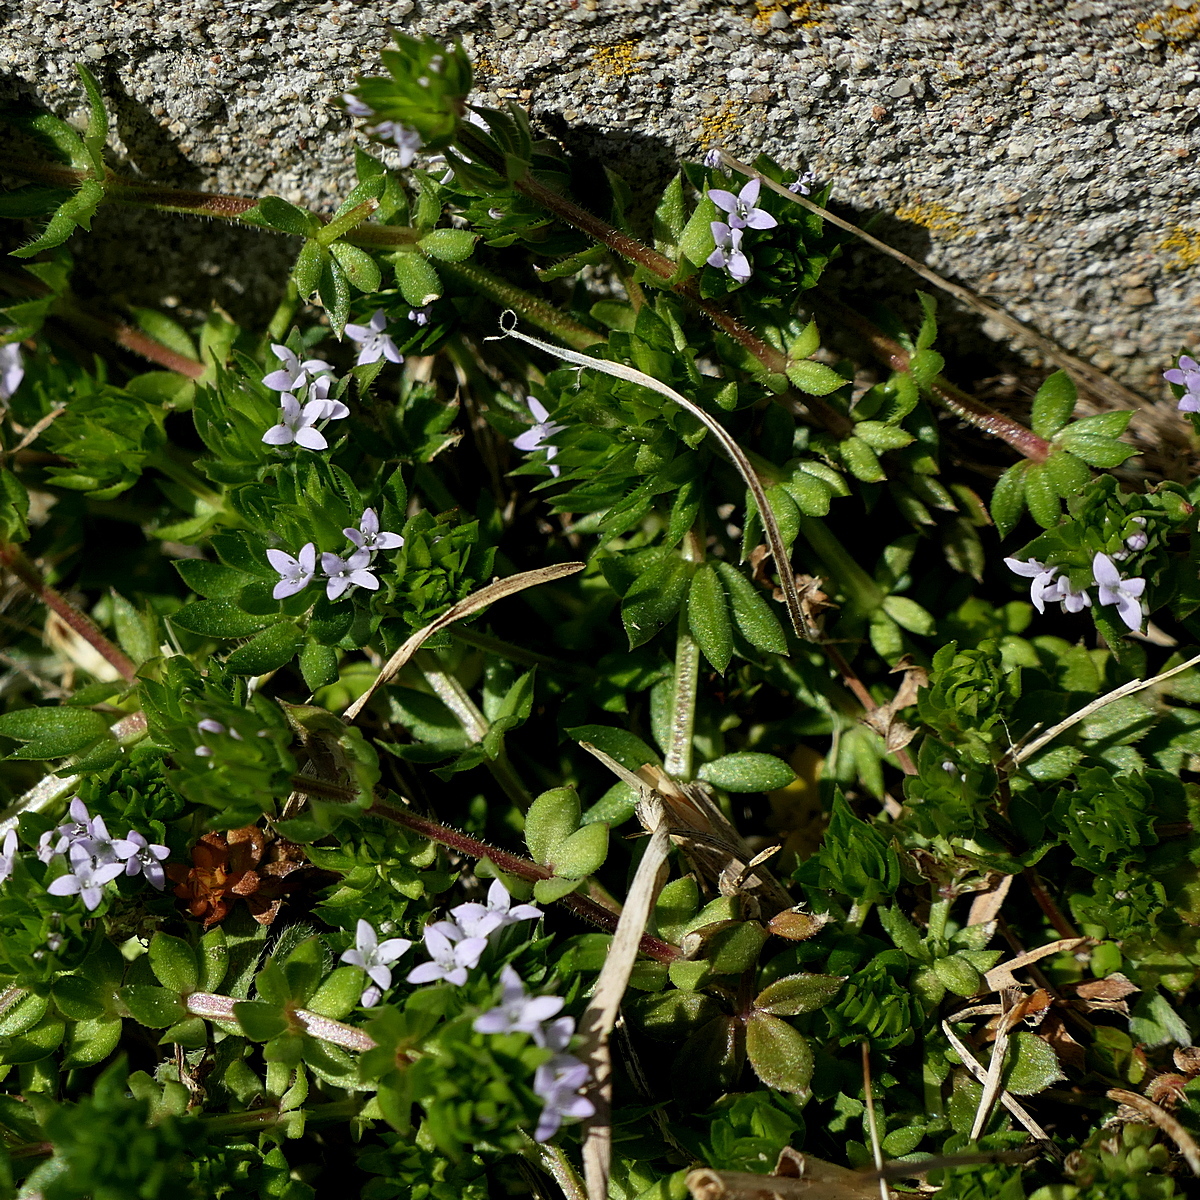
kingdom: Plantae
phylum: Tracheophyta
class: Magnoliopsida
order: Gentianales
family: Rubiaceae
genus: Sherardia
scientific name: Sherardia arvensis
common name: Field madder
